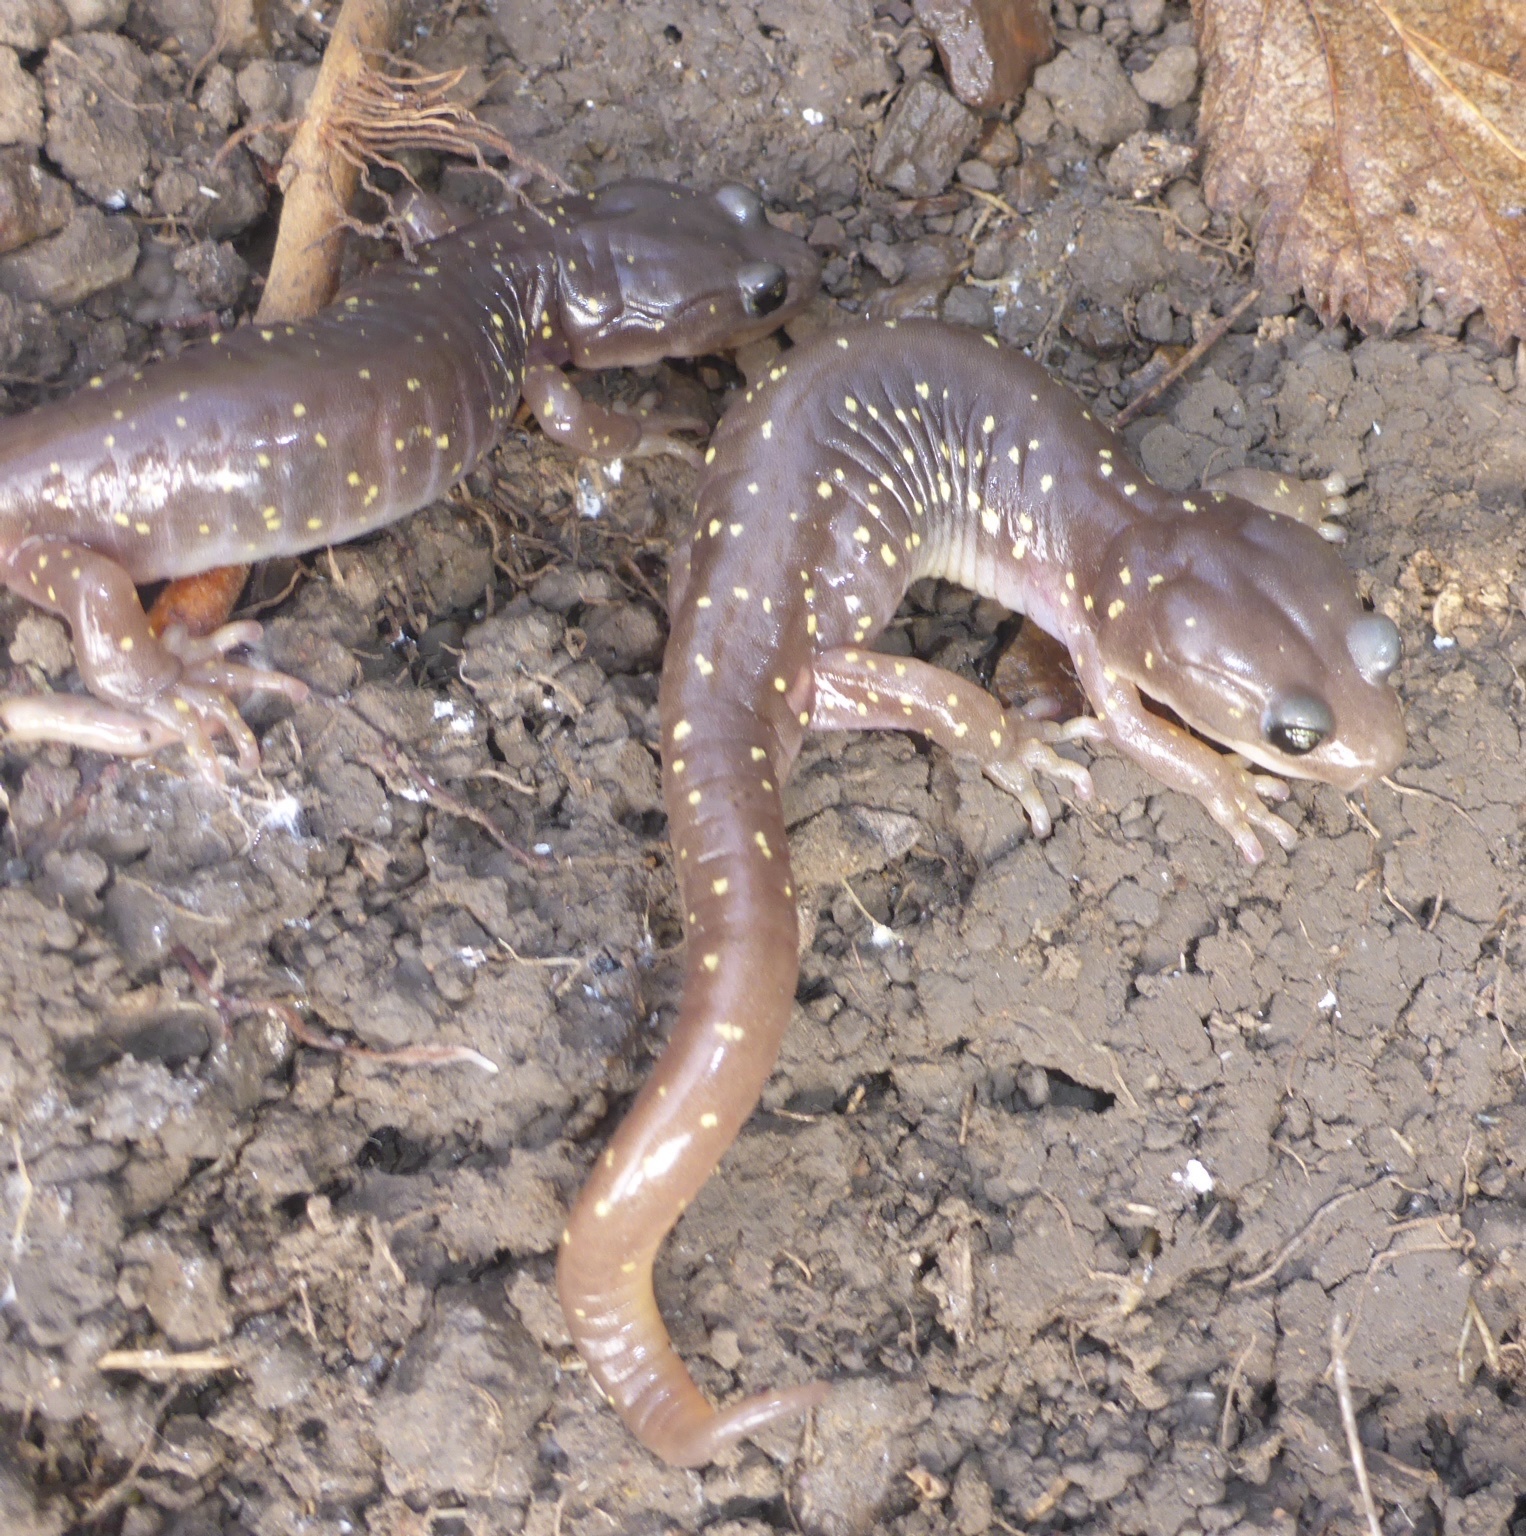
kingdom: Animalia
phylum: Chordata
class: Amphibia
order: Caudata
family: Plethodontidae
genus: Aneides
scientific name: Aneides lugubris
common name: Arboreal salamander
